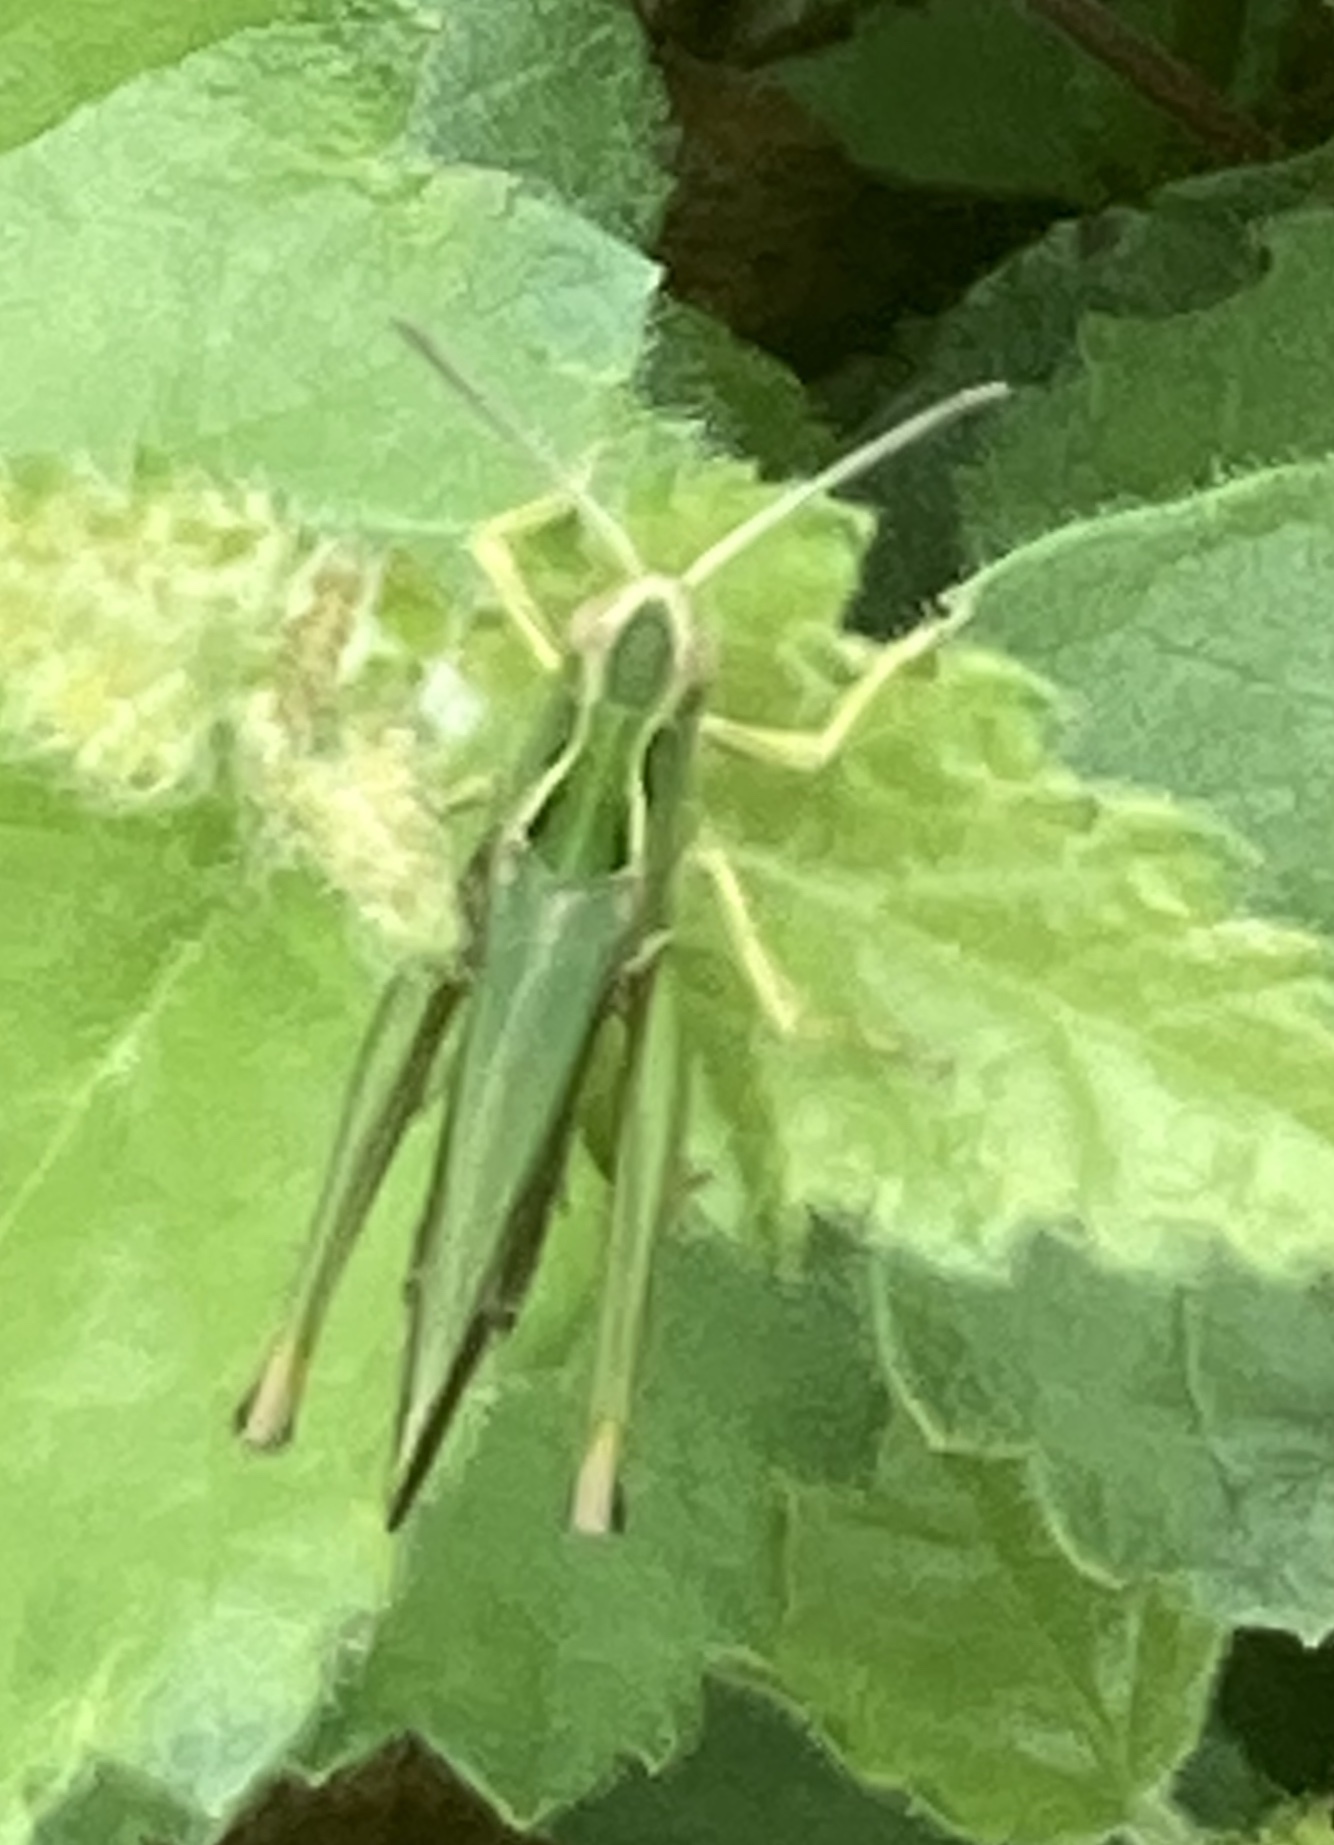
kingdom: Animalia
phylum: Arthropoda
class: Insecta
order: Orthoptera
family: Acrididae
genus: Omocestus
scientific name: Omocestus viridulus
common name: Common green grasshopper
